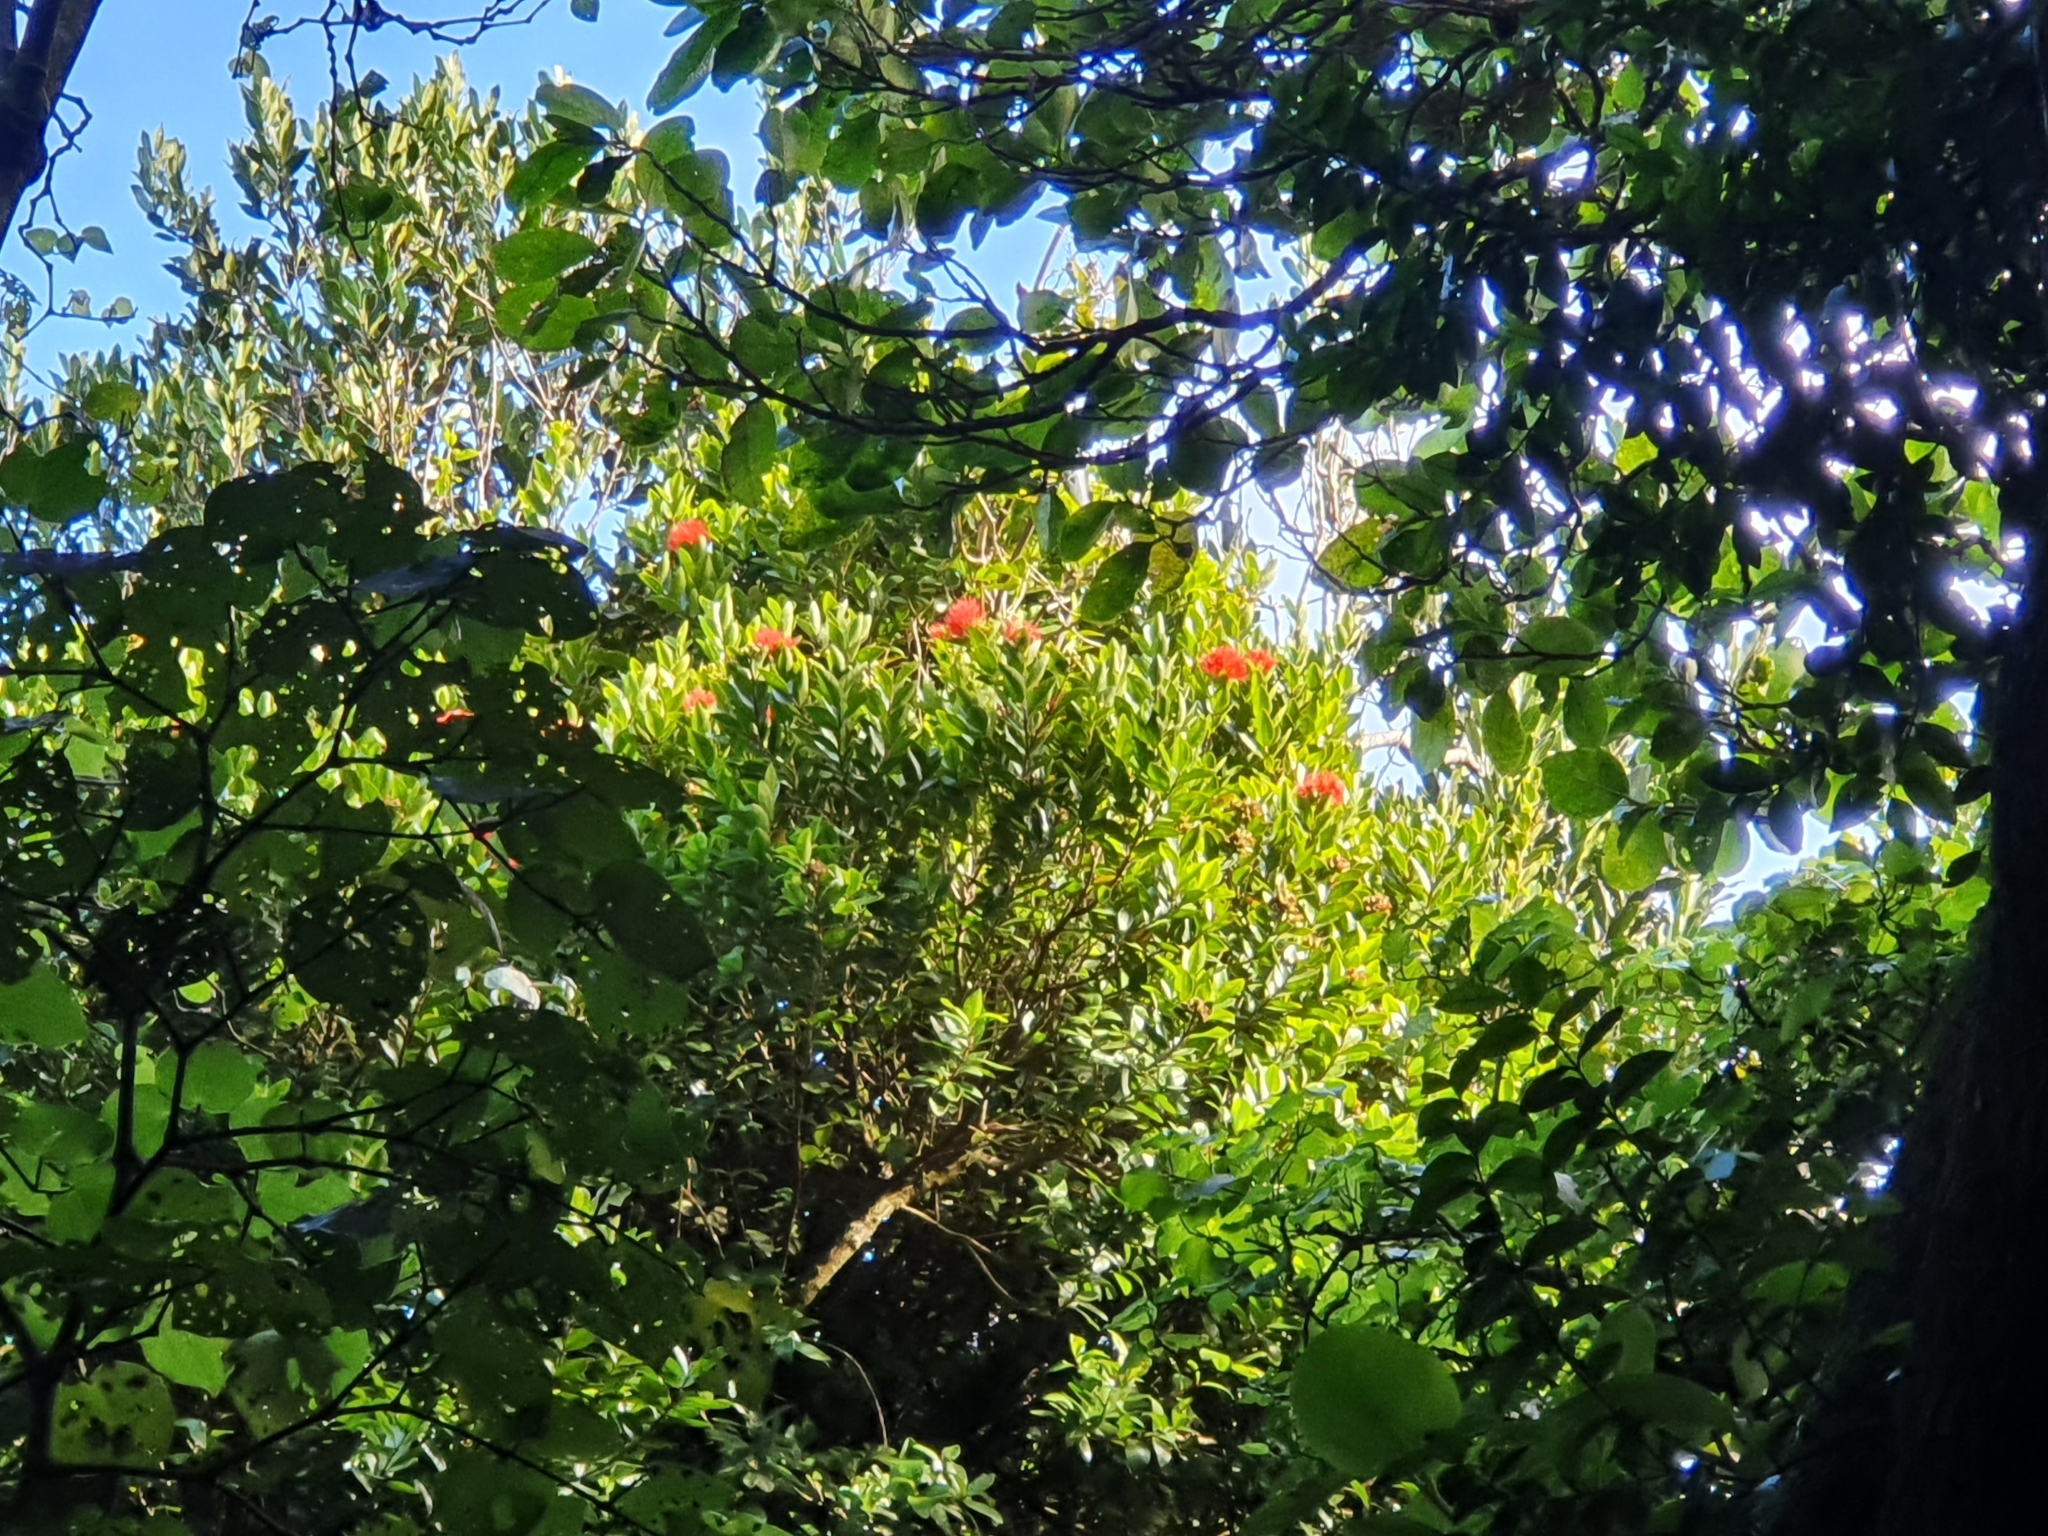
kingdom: Plantae
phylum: Tracheophyta
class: Magnoliopsida
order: Myrtales
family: Myrtaceae
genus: Metrosideros
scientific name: Metrosideros fulgens
